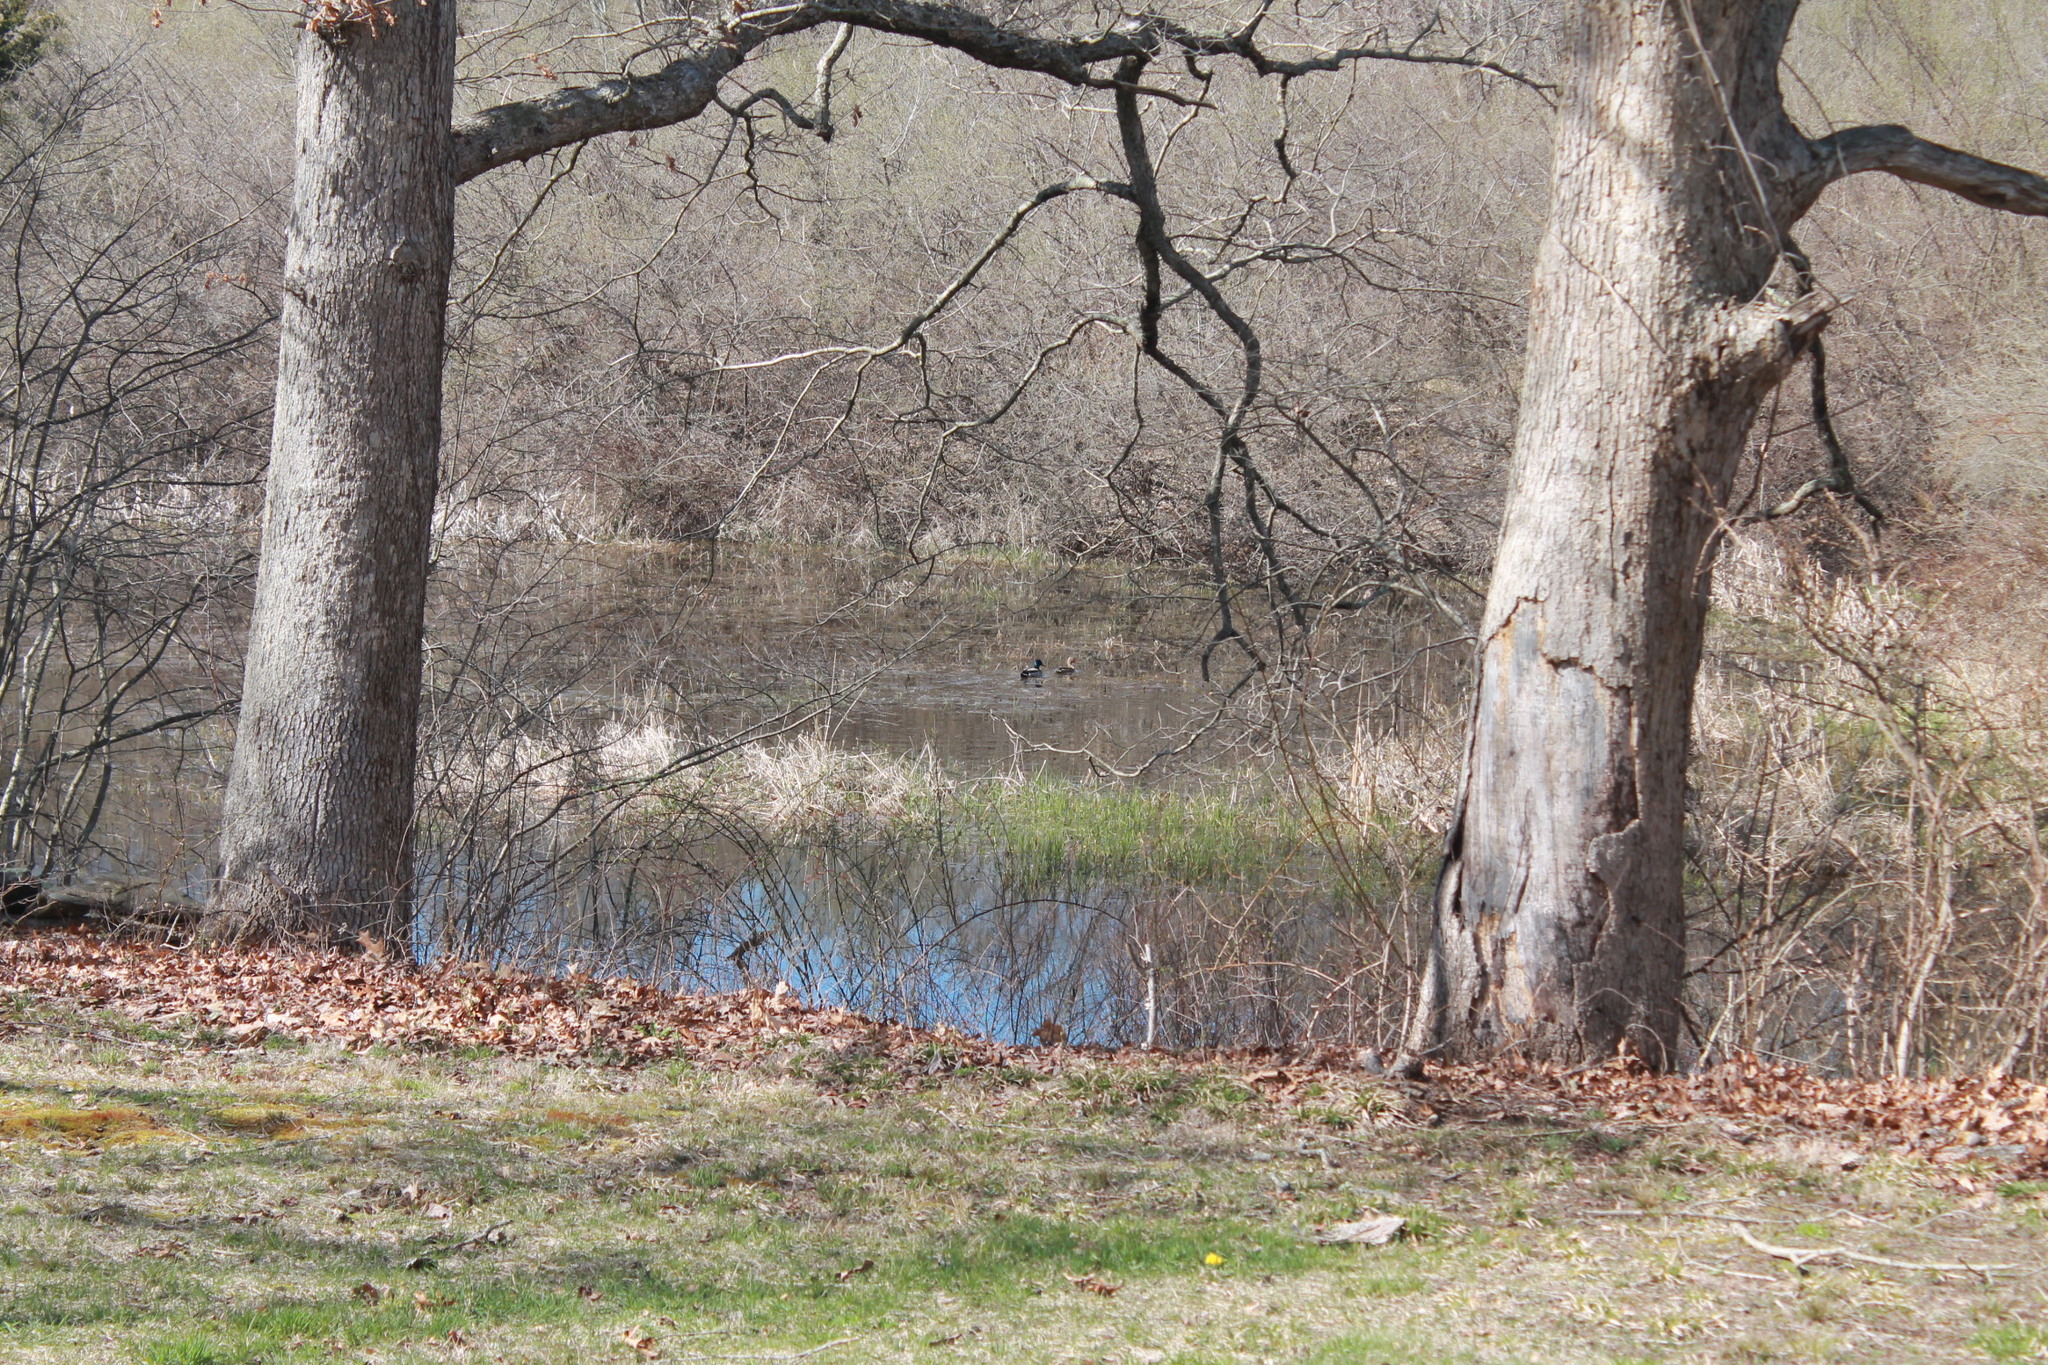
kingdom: Animalia
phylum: Chordata
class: Aves
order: Anseriformes
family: Anatidae
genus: Anas
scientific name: Anas platyrhynchos
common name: Mallard
